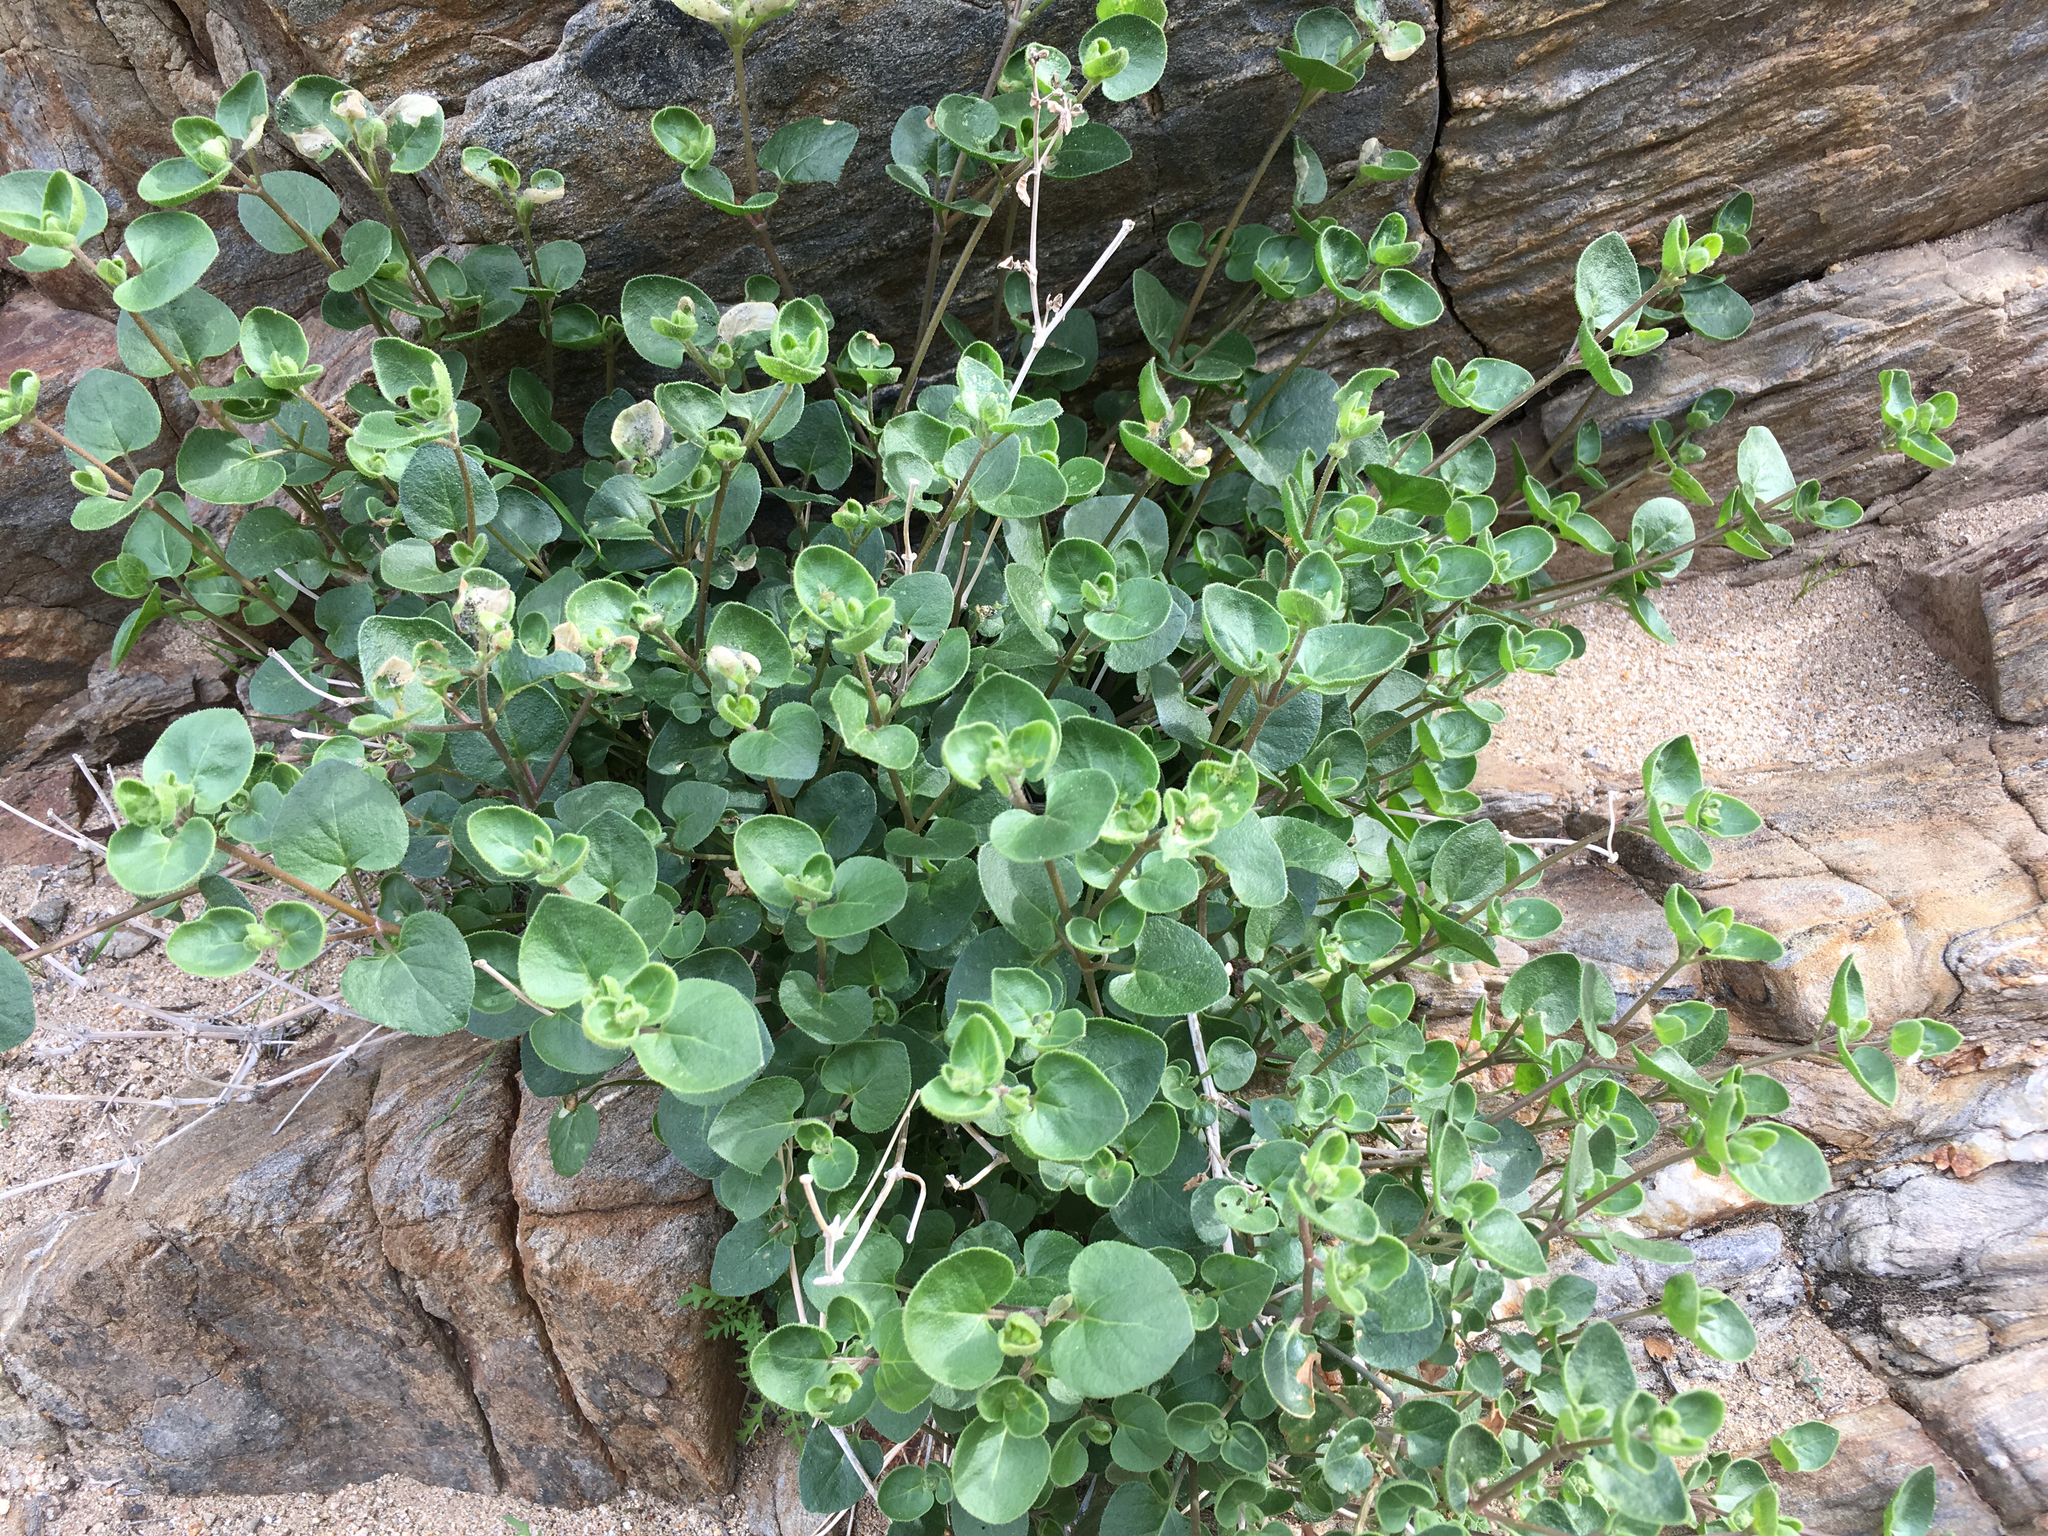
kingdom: Plantae
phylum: Tracheophyta
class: Magnoliopsida
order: Caryophyllales
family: Nyctaginaceae
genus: Mirabilis
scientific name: Mirabilis laevis
